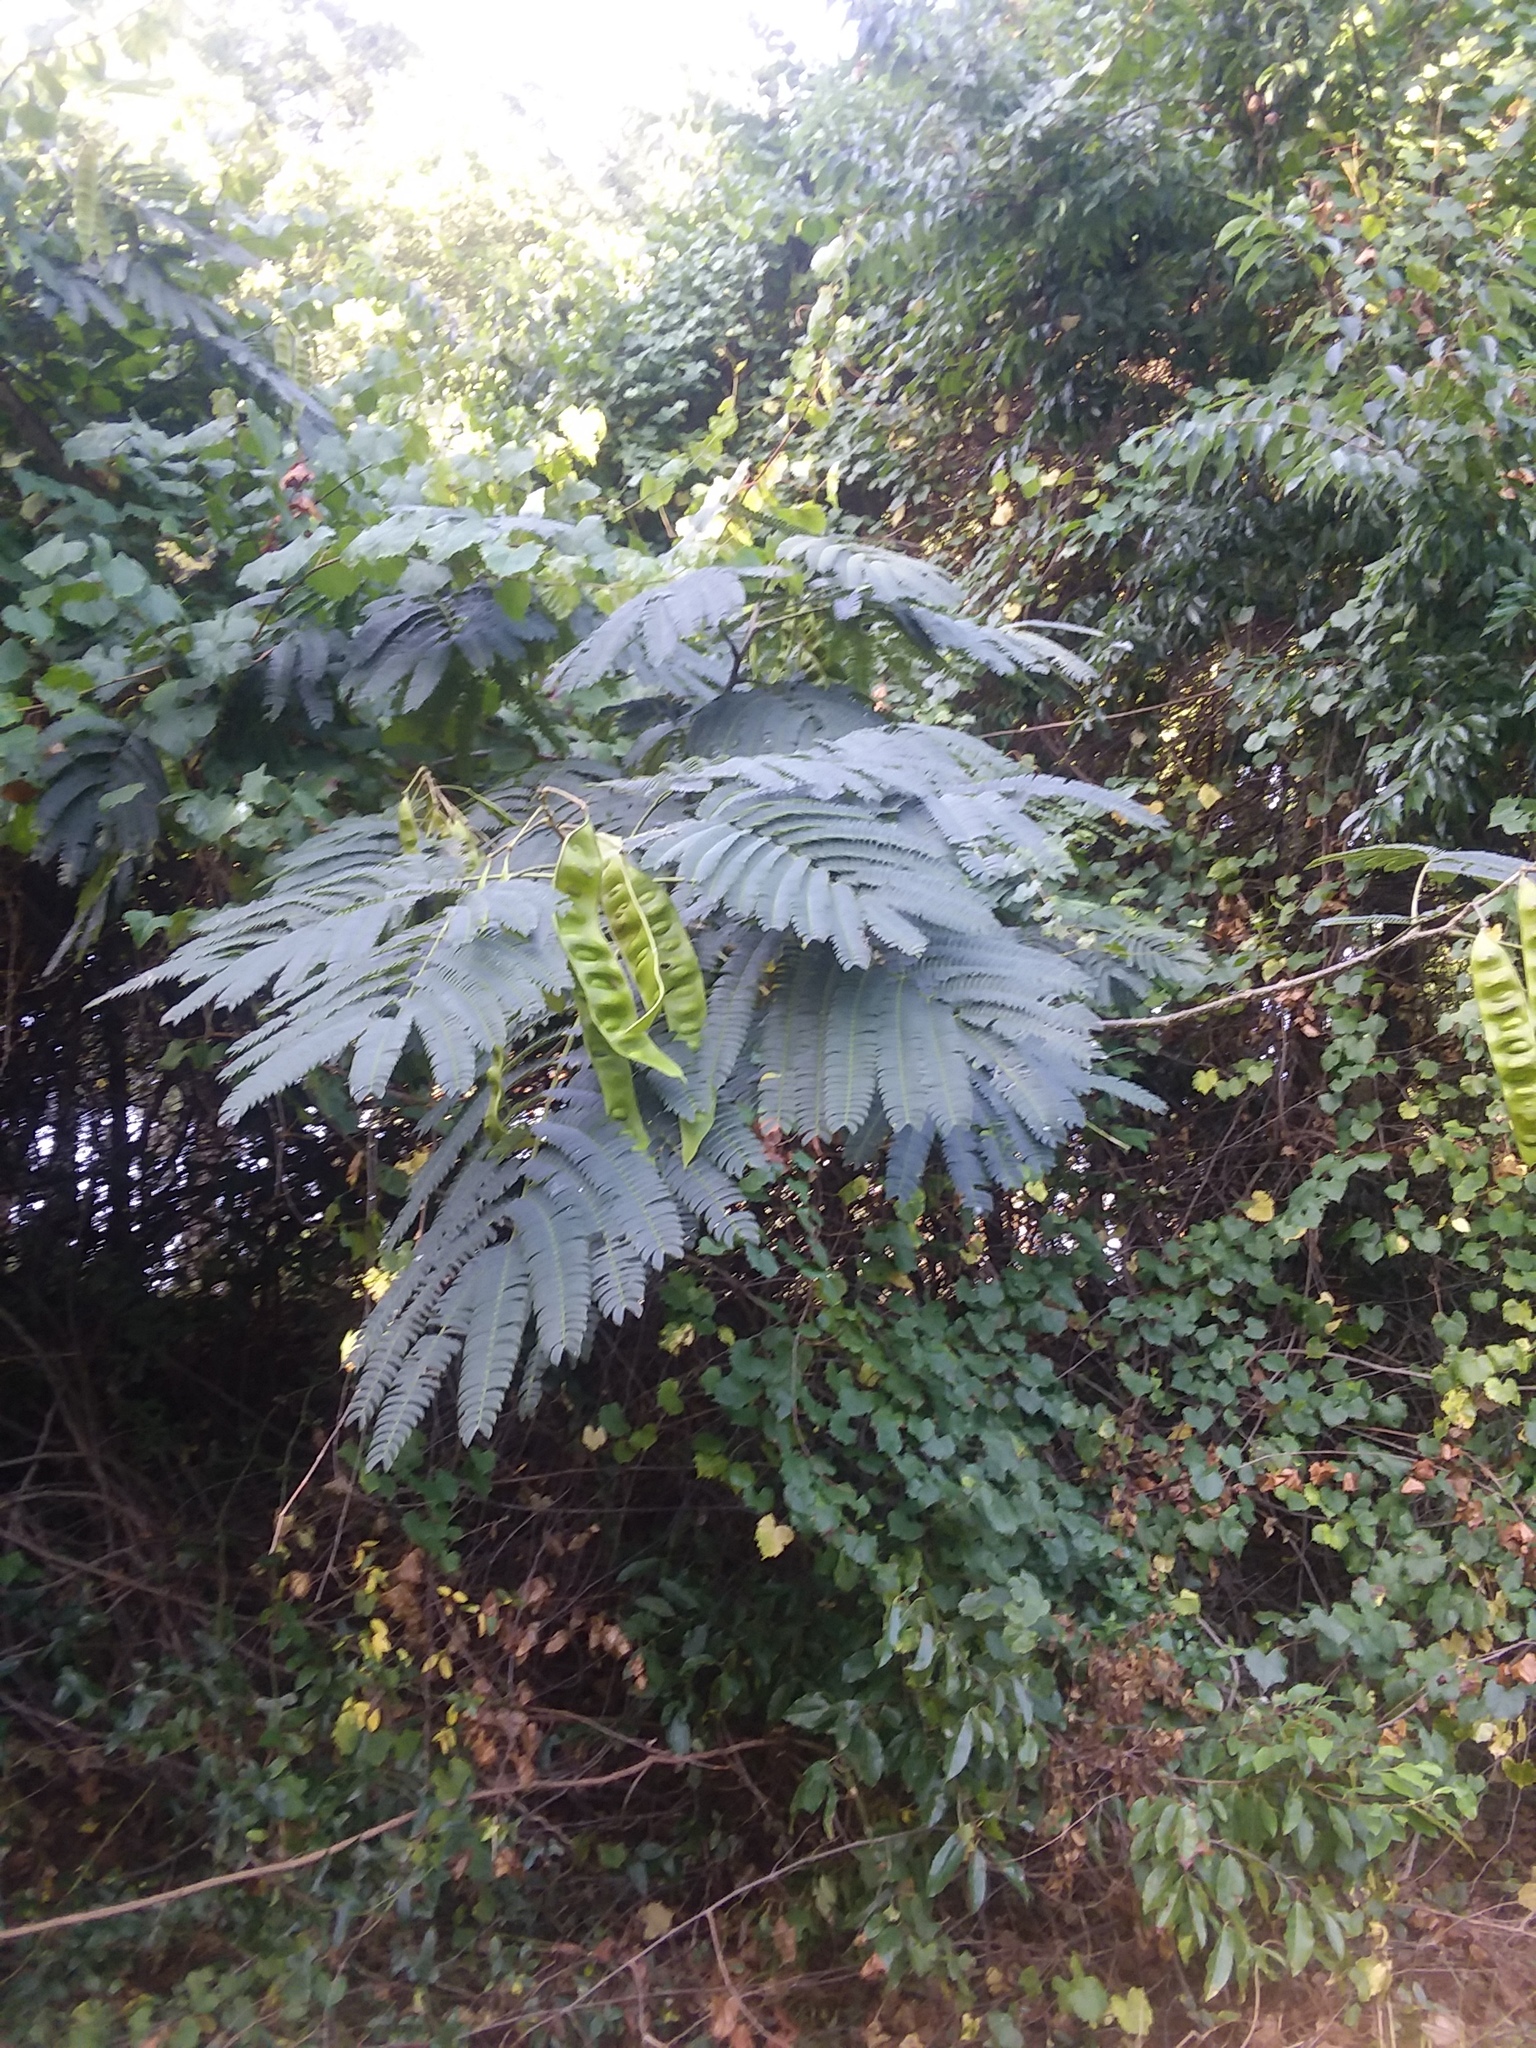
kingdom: Plantae
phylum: Tracheophyta
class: Magnoliopsida
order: Fabales
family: Fabaceae
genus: Albizia
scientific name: Albizia julibrissin
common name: Silktree
